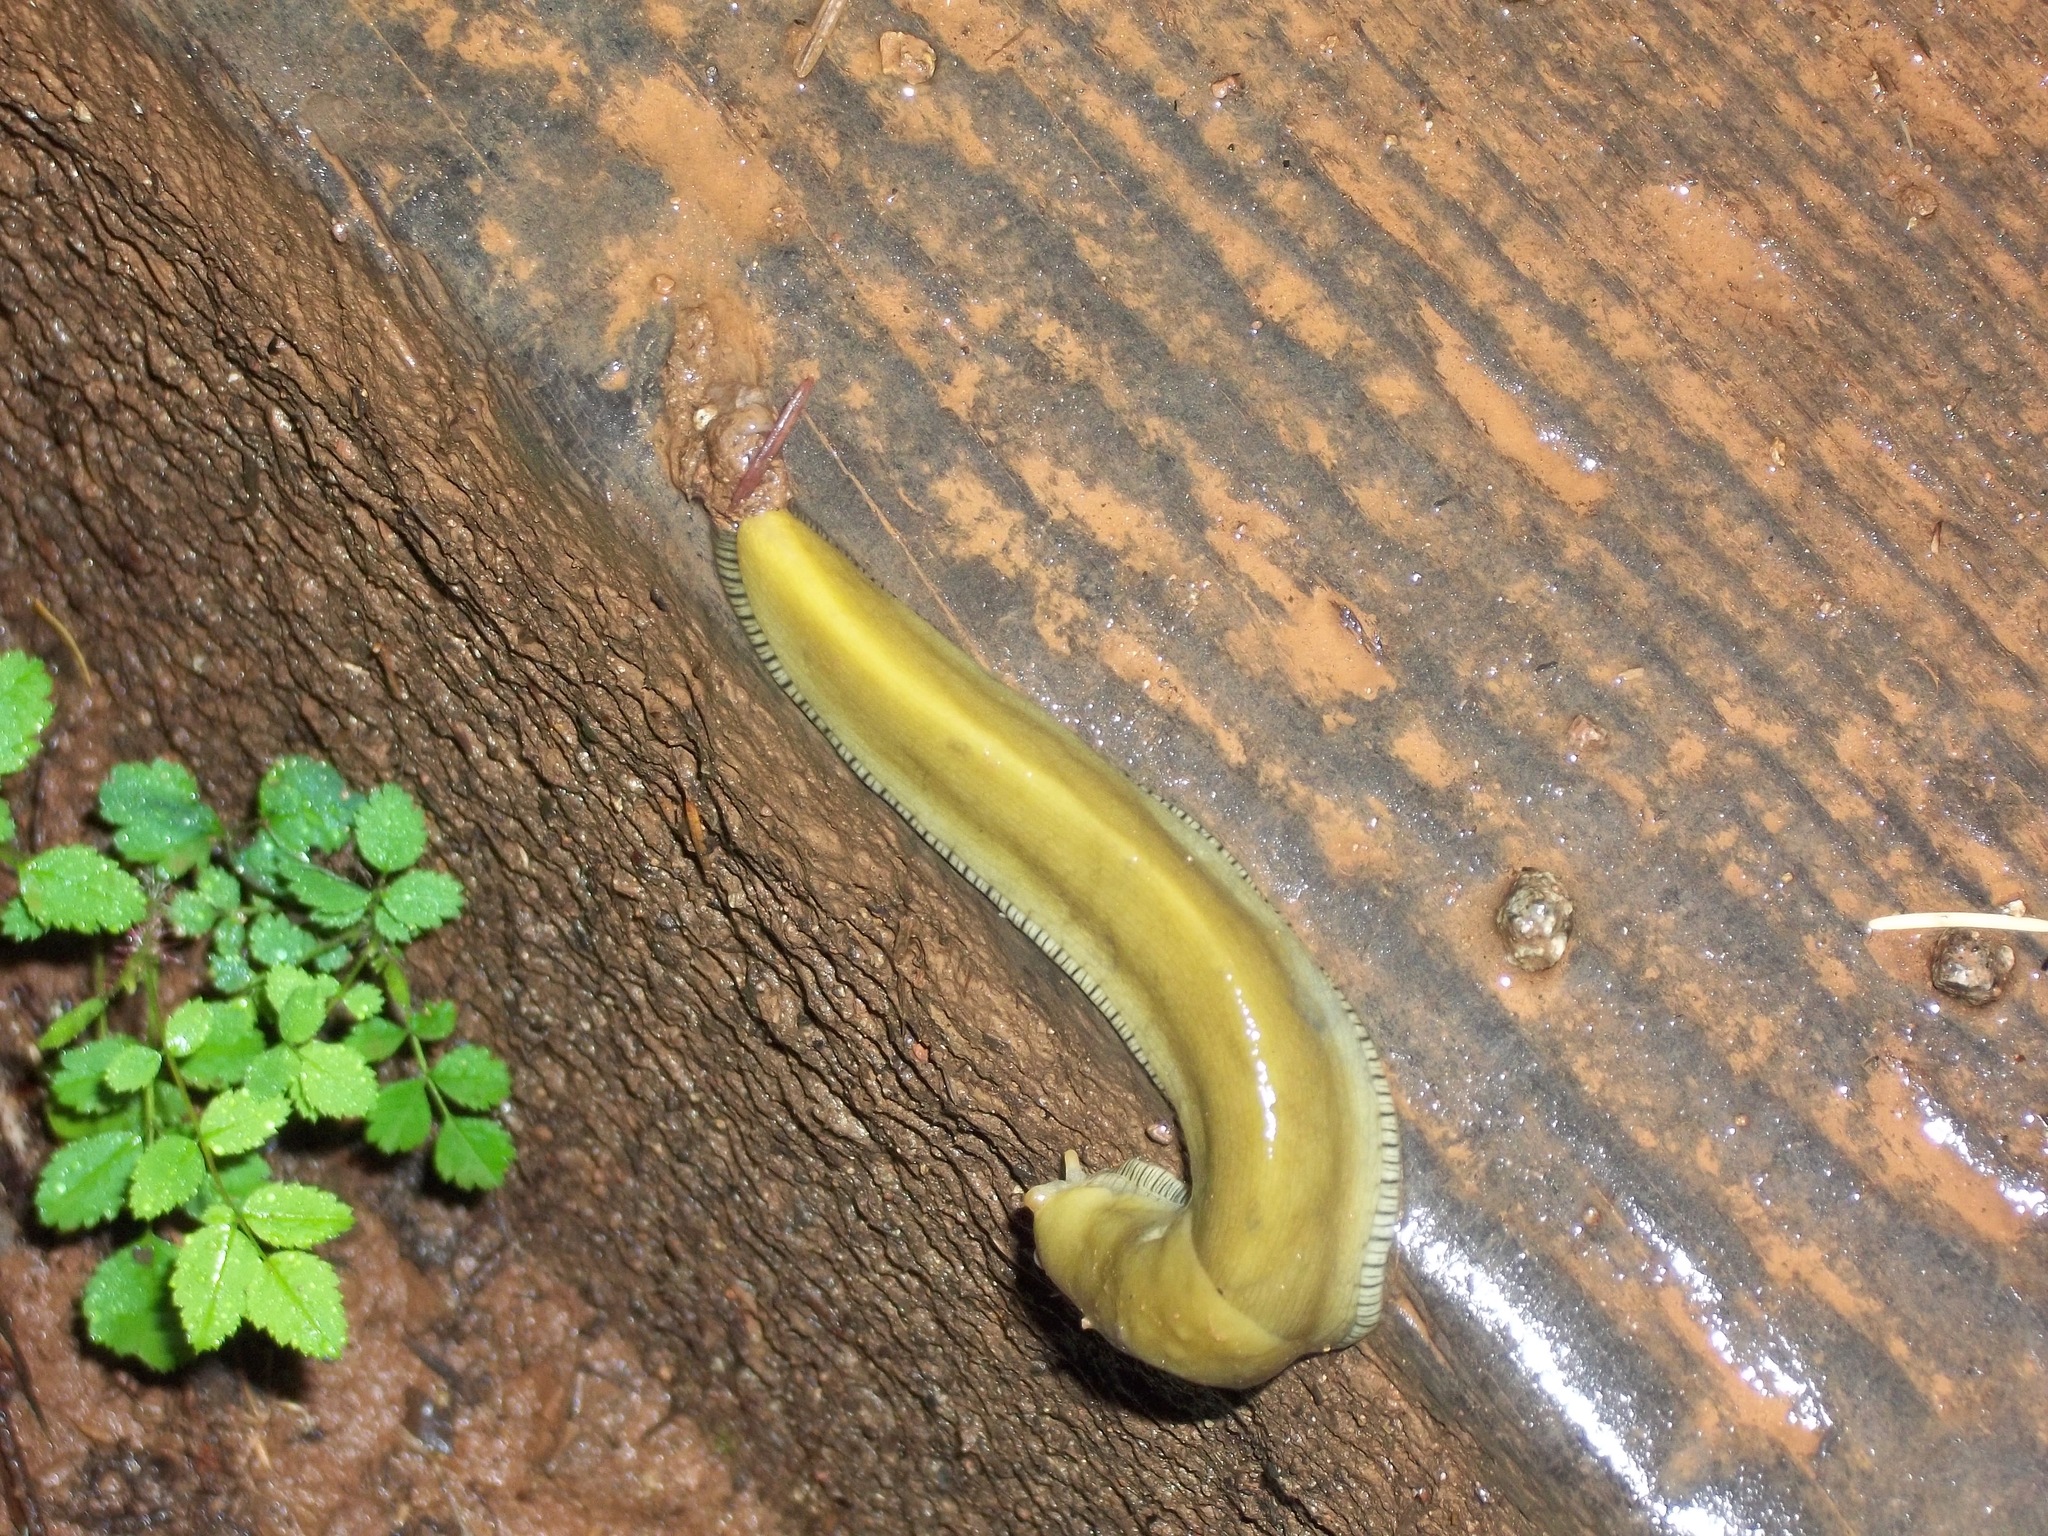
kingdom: Animalia
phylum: Mollusca
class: Gastropoda
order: Stylommatophora
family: Ariolimacidae
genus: Ariolimax
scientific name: Ariolimax buttoni
